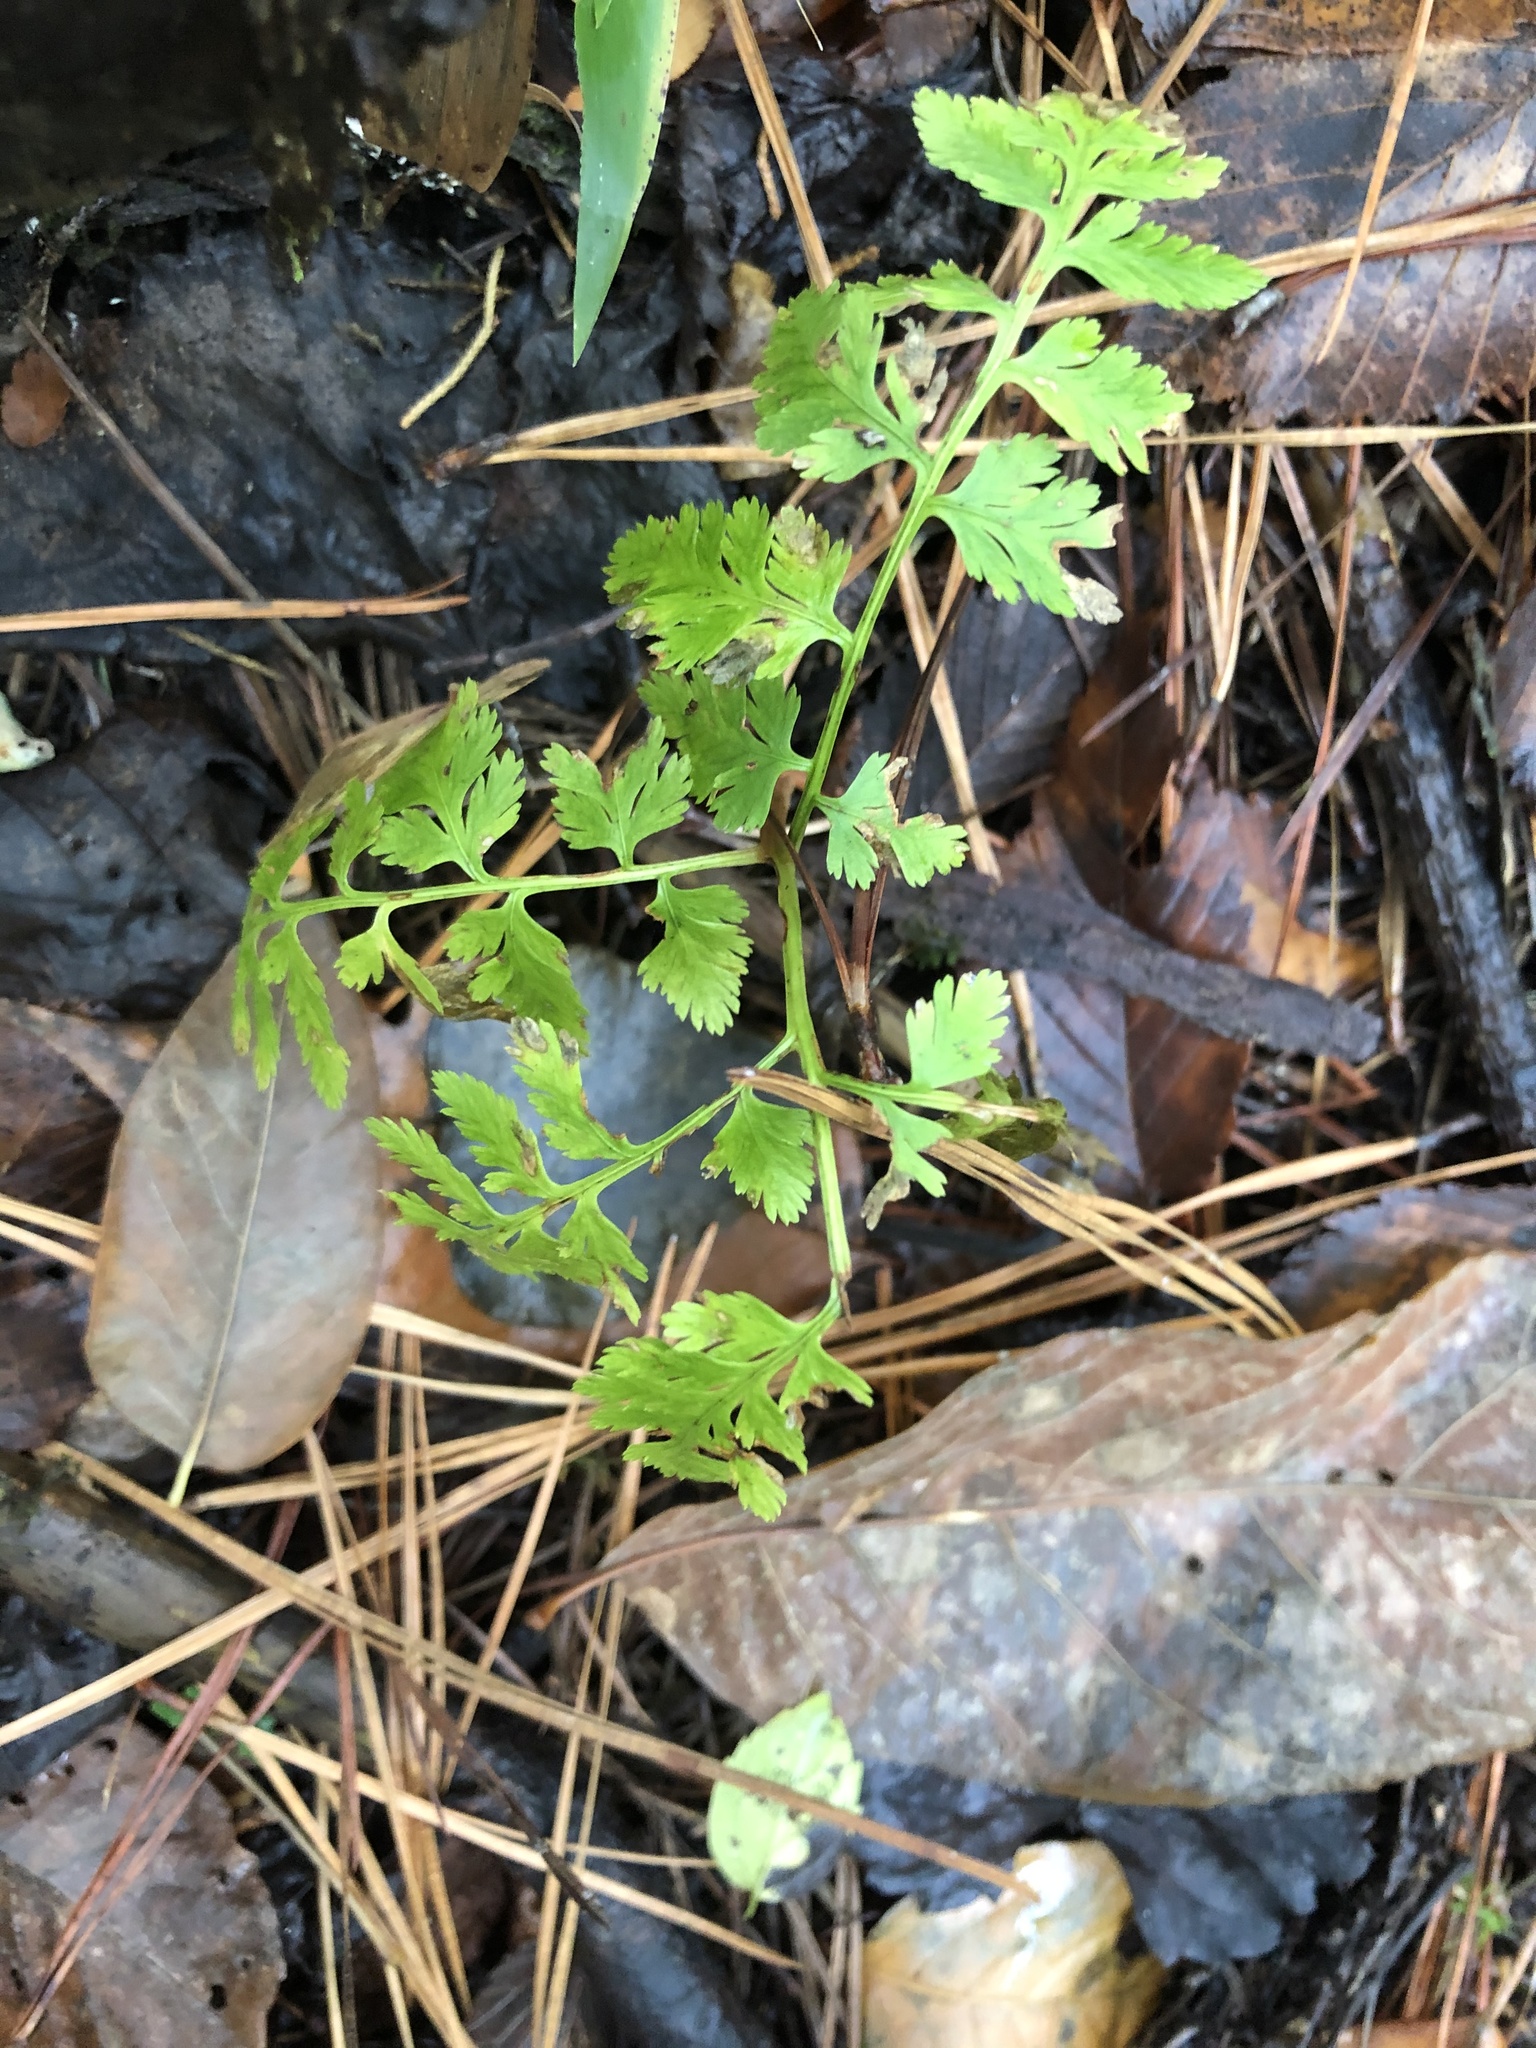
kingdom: Plantae
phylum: Tracheophyta
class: Polypodiopsida
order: Ophioglossales
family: Ophioglossaceae
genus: Botrypus
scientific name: Botrypus virginianus
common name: Common grapefern
